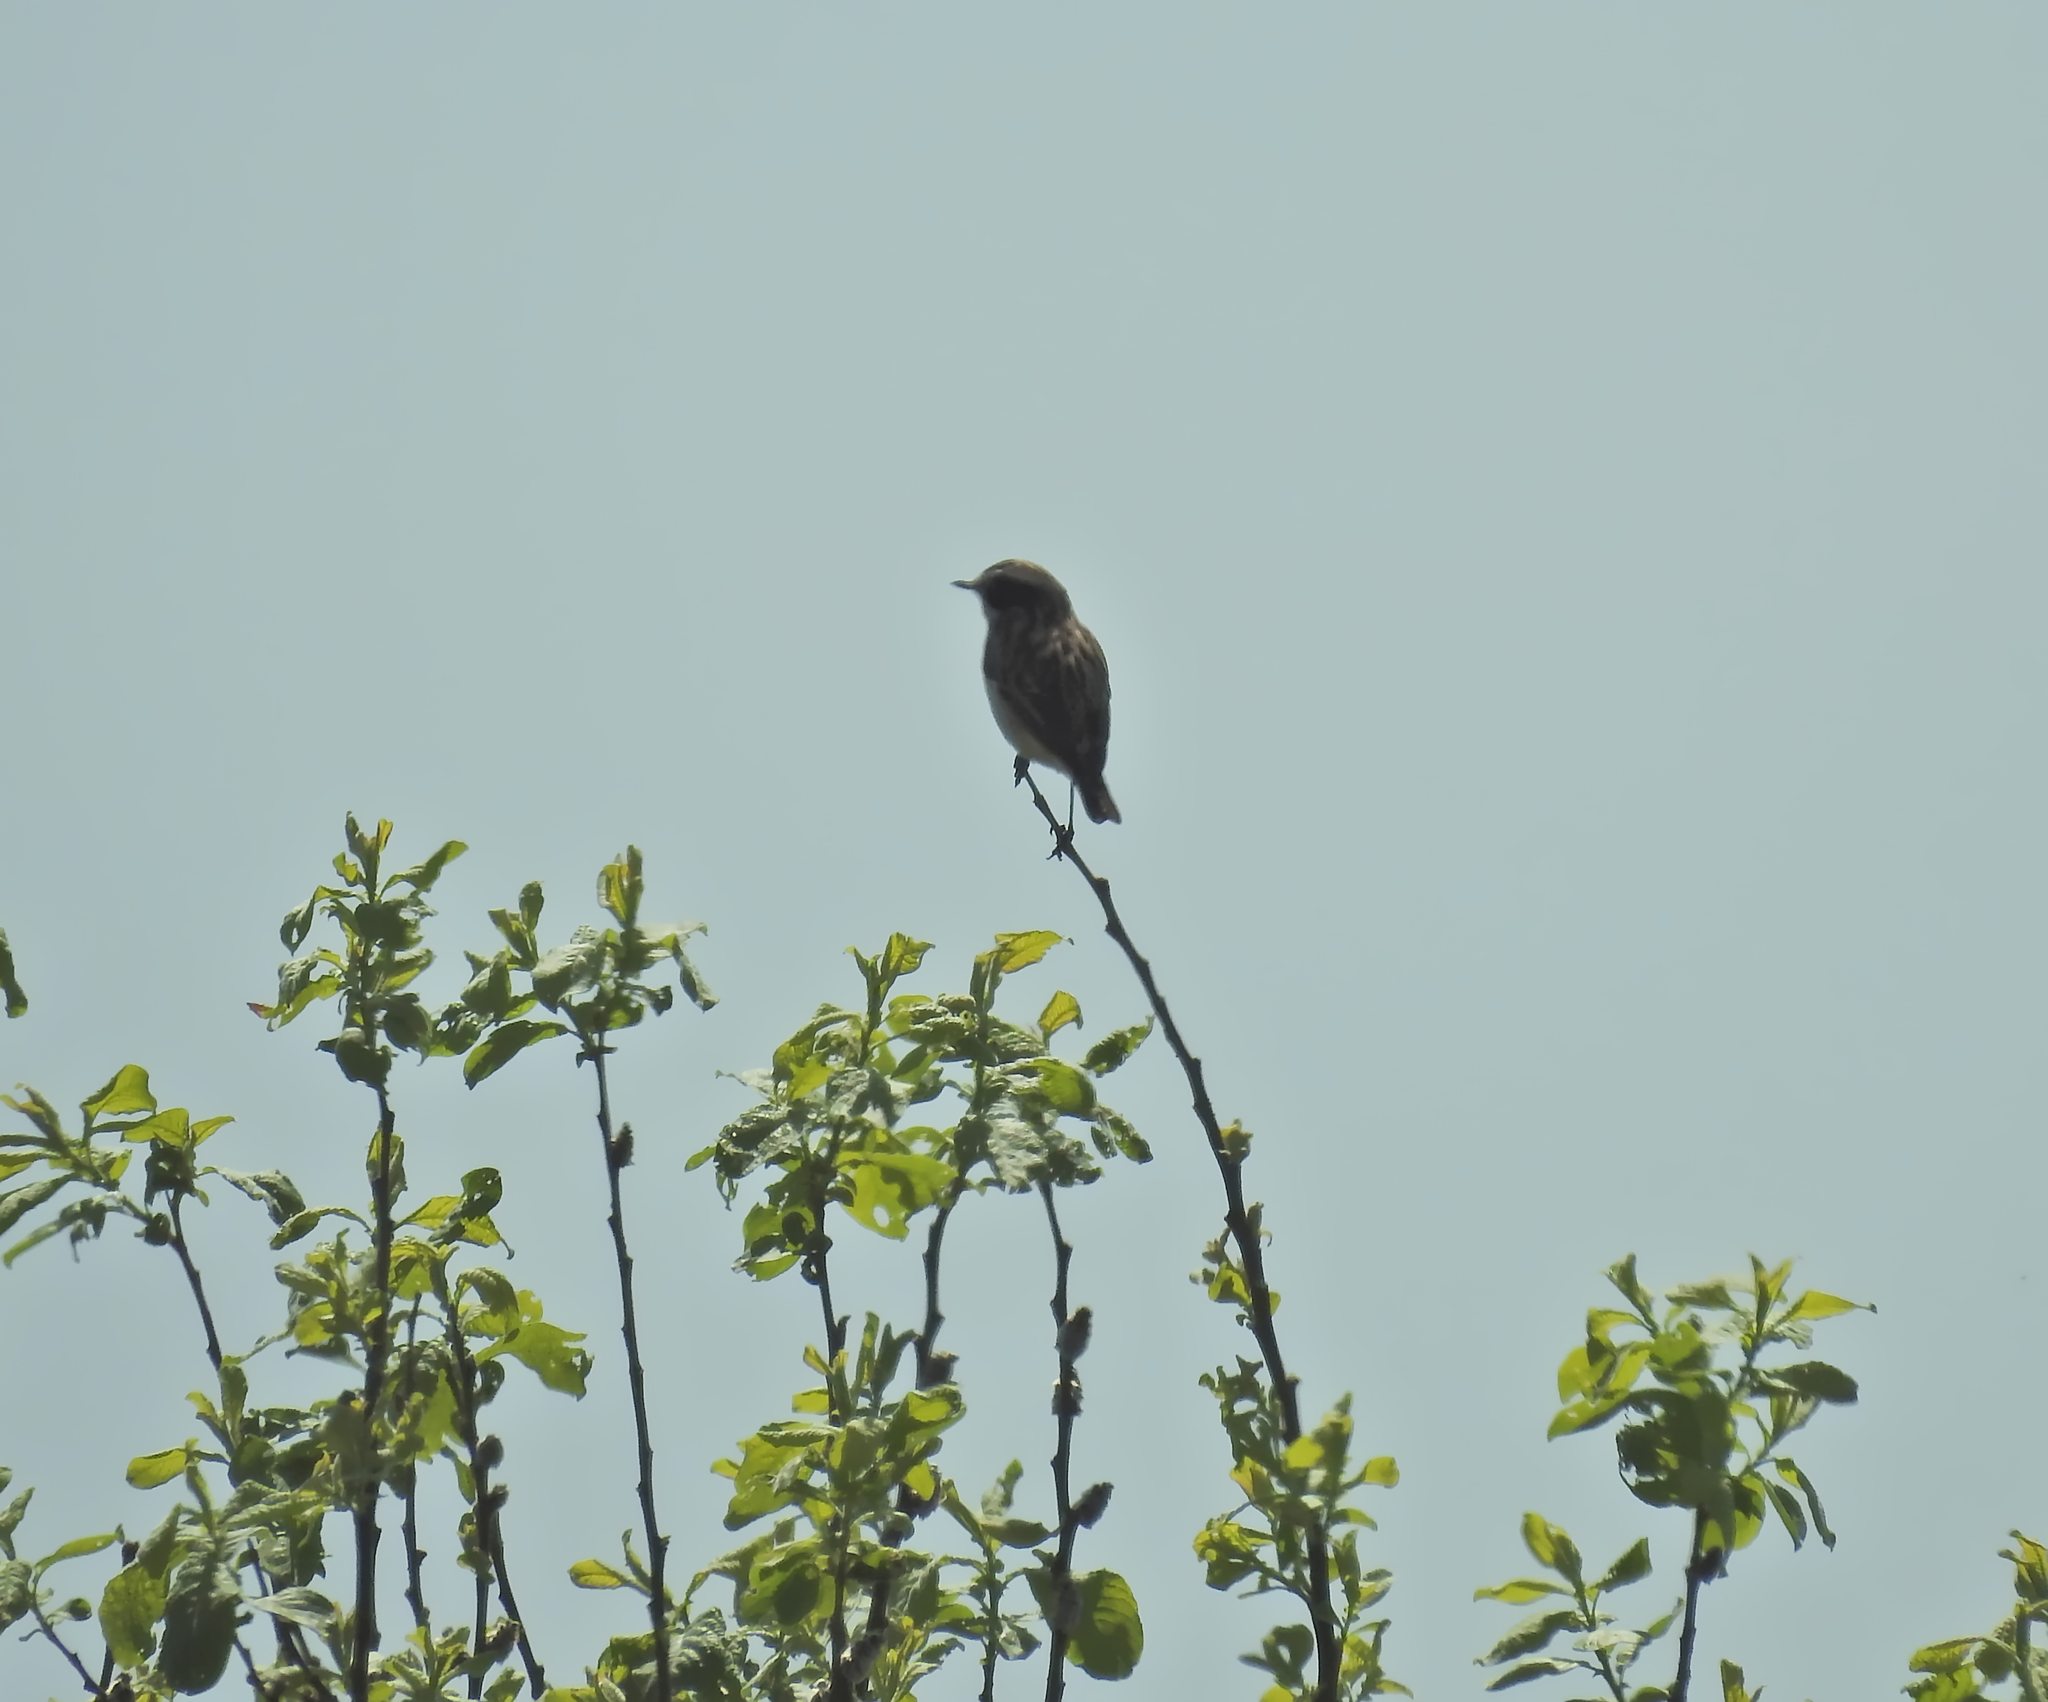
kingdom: Animalia
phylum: Chordata
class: Aves
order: Passeriformes
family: Muscicapidae
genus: Saxicola
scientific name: Saxicola rubetra
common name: Whinchat
